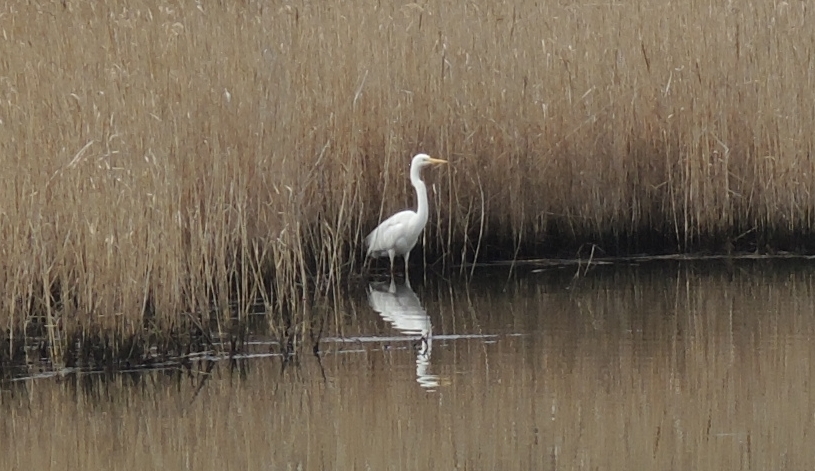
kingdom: Animalia
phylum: Chordata
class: Aves
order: Pelecaniformes
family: Ardeidae
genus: Ardea
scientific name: Ardea alba
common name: Great egret
